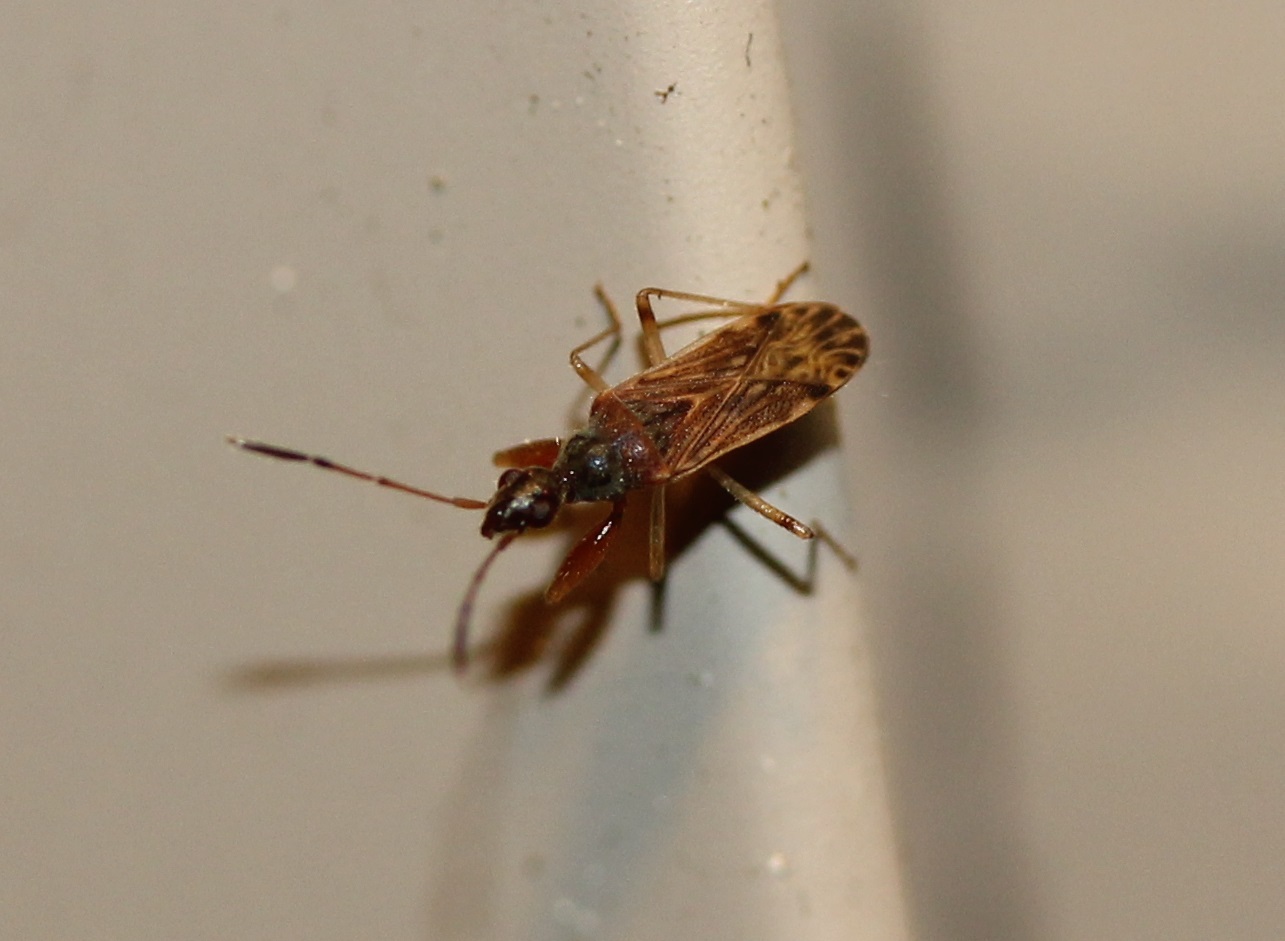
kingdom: Animalia
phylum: Arthropoda
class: Insecta
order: Hemiptera
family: Rhyparochromidae
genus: Heraeus
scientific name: Heraeus plebejus
